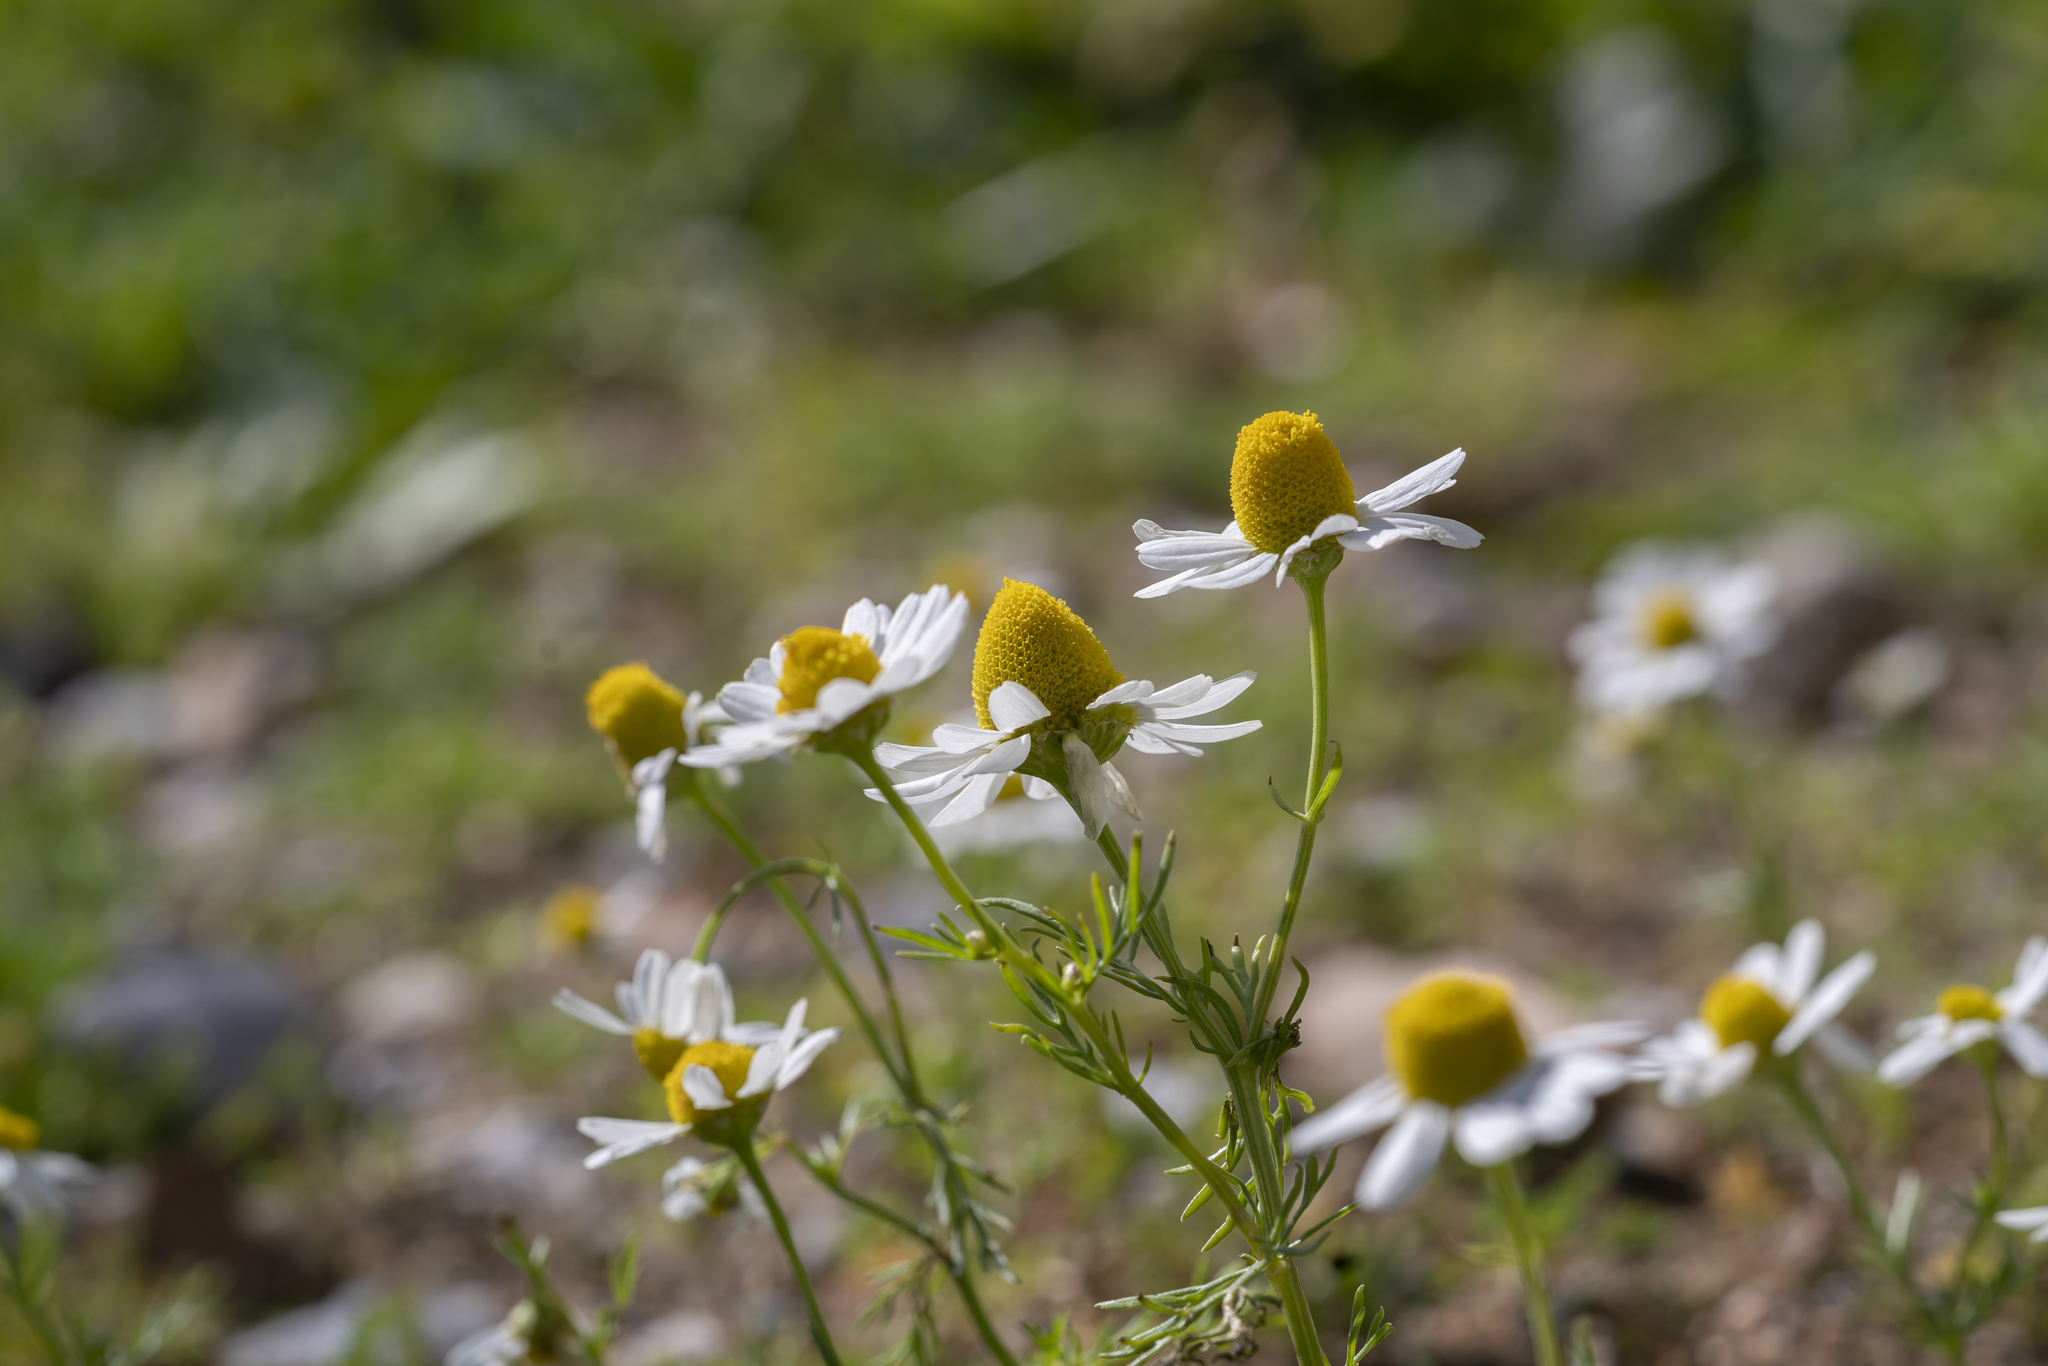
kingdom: Plantae
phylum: Tracheophyta
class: Magnoliopsida
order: Asterales
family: Asteraceae
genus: Matricaria
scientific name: Matricaria chamomilla
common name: Scented mayweed
